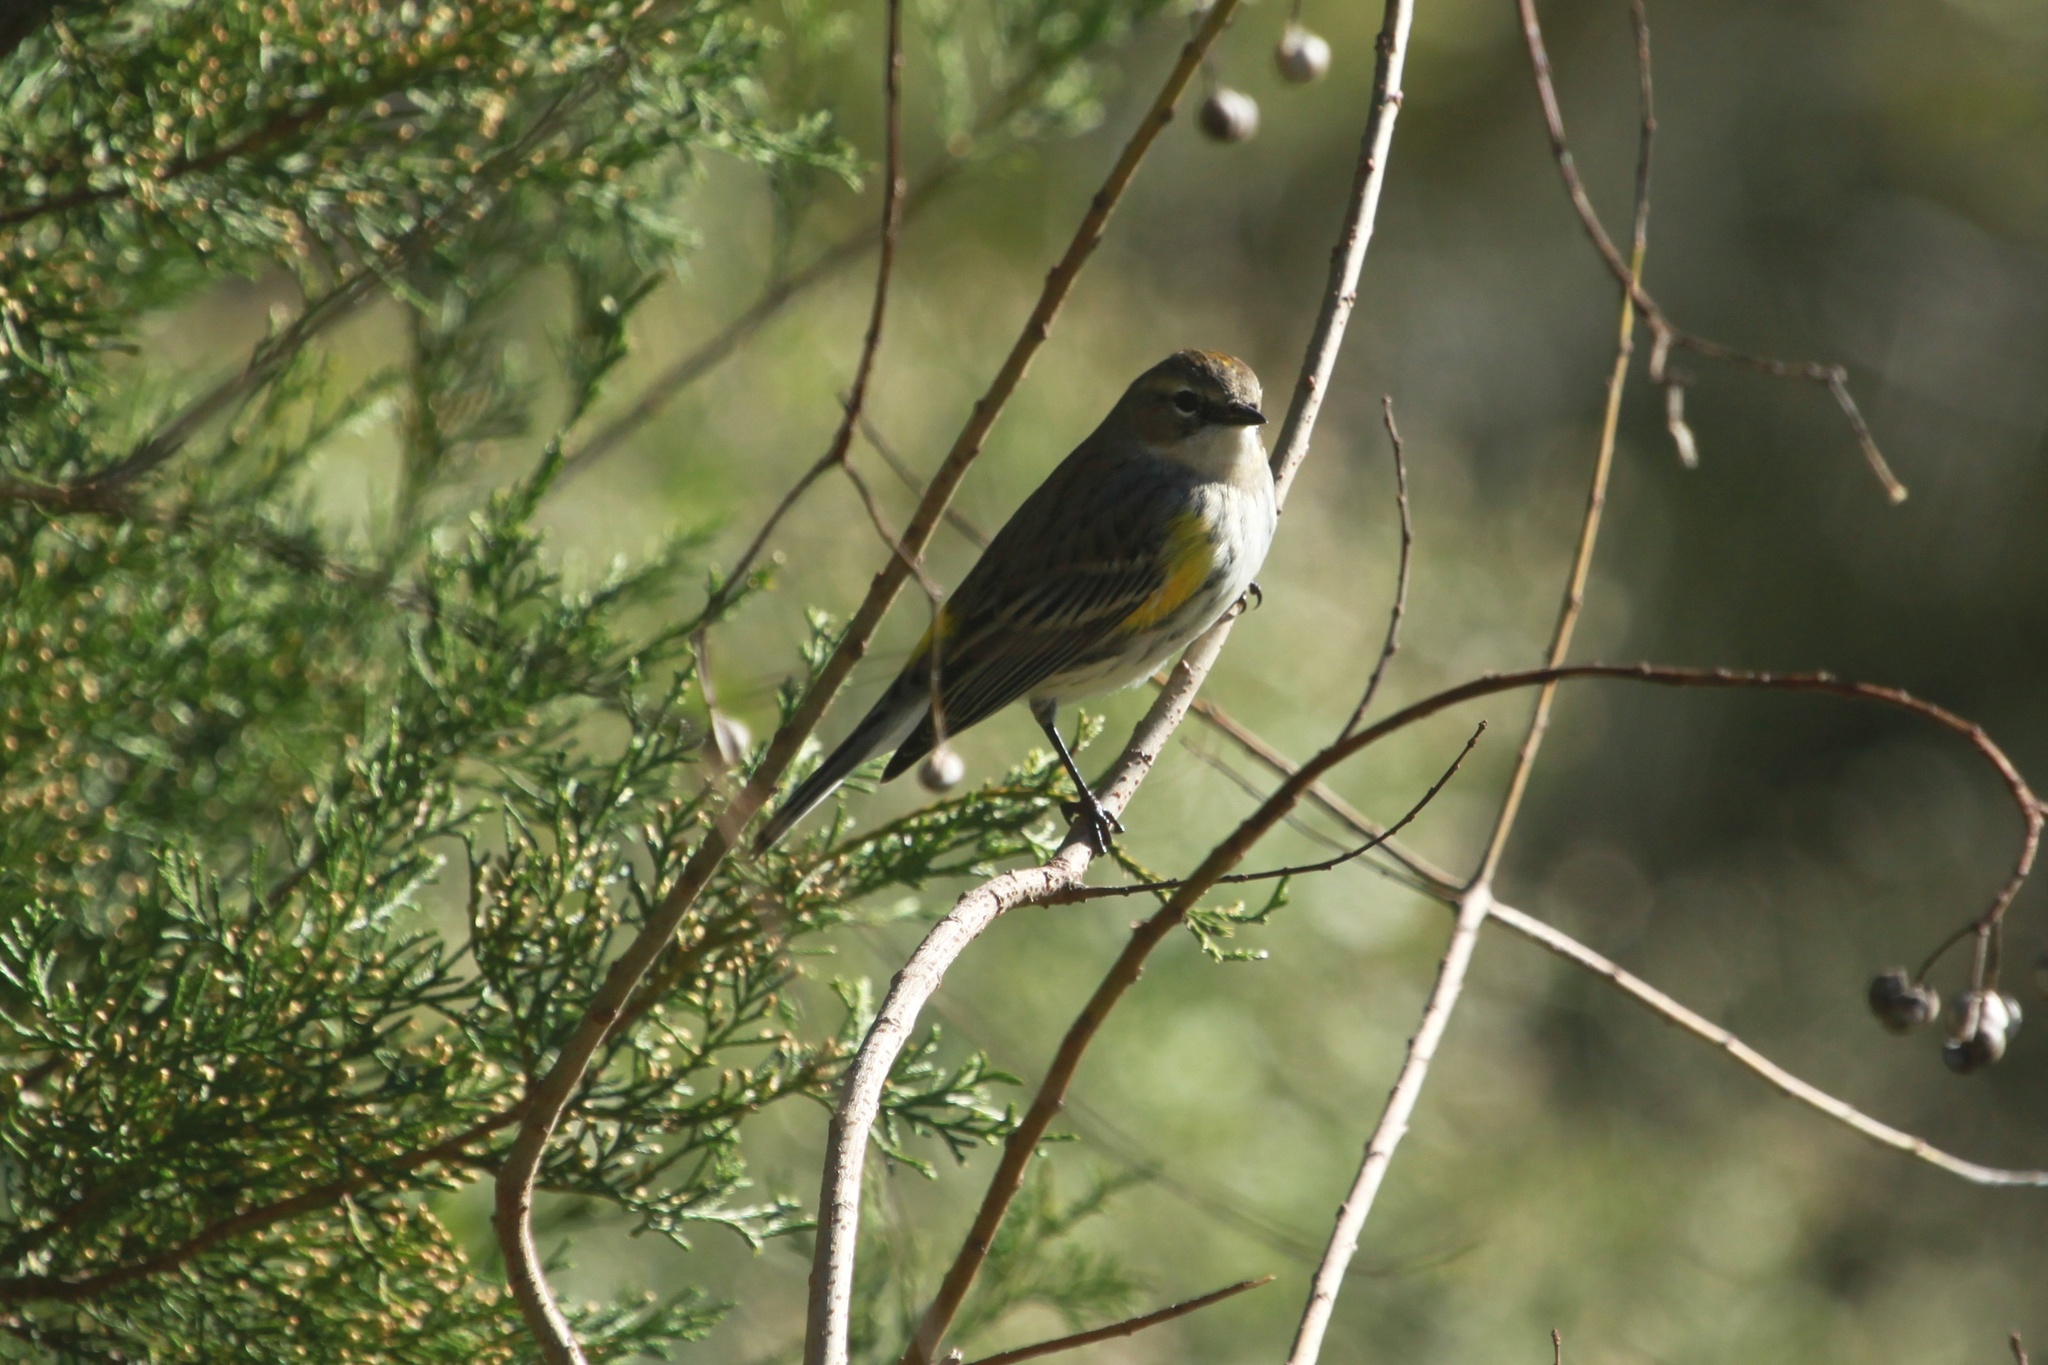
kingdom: Animalia
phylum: Chordata
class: Aves
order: Passeriformes
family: Parulidae
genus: Setophaga
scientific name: Setophaga coronata
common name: Myrtle warbler
